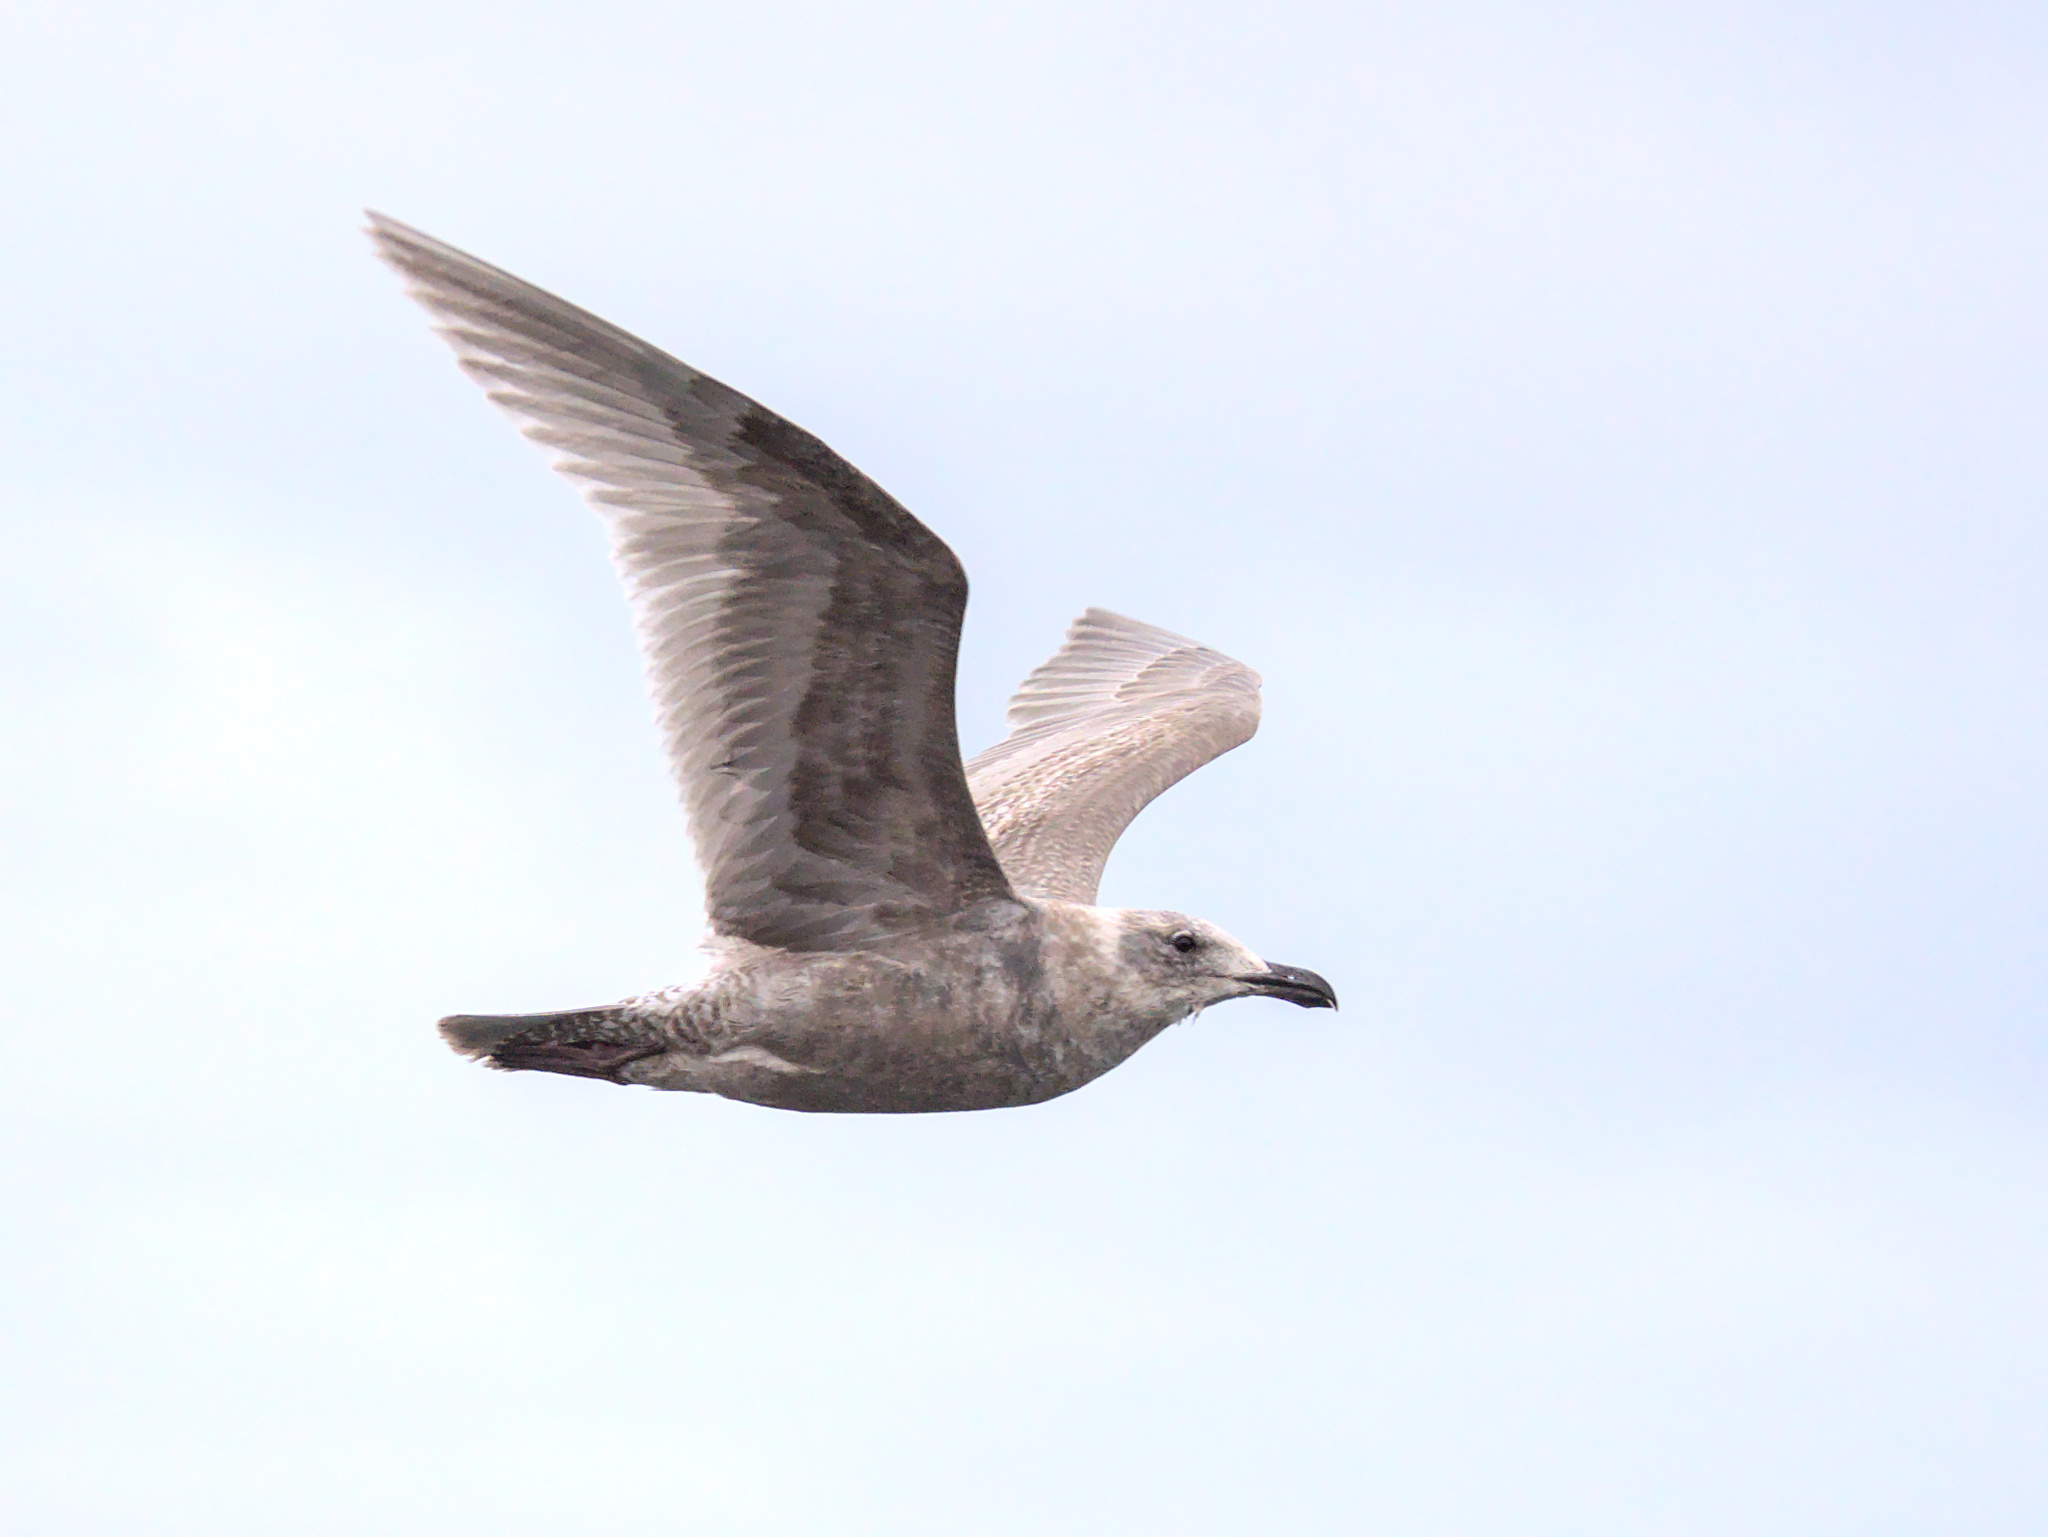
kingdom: Animalia
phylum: Chordata
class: Aves
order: Charadriiformes
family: Laridae
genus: Larus
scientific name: Larus glaucescens
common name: Glaucous-winged gull
